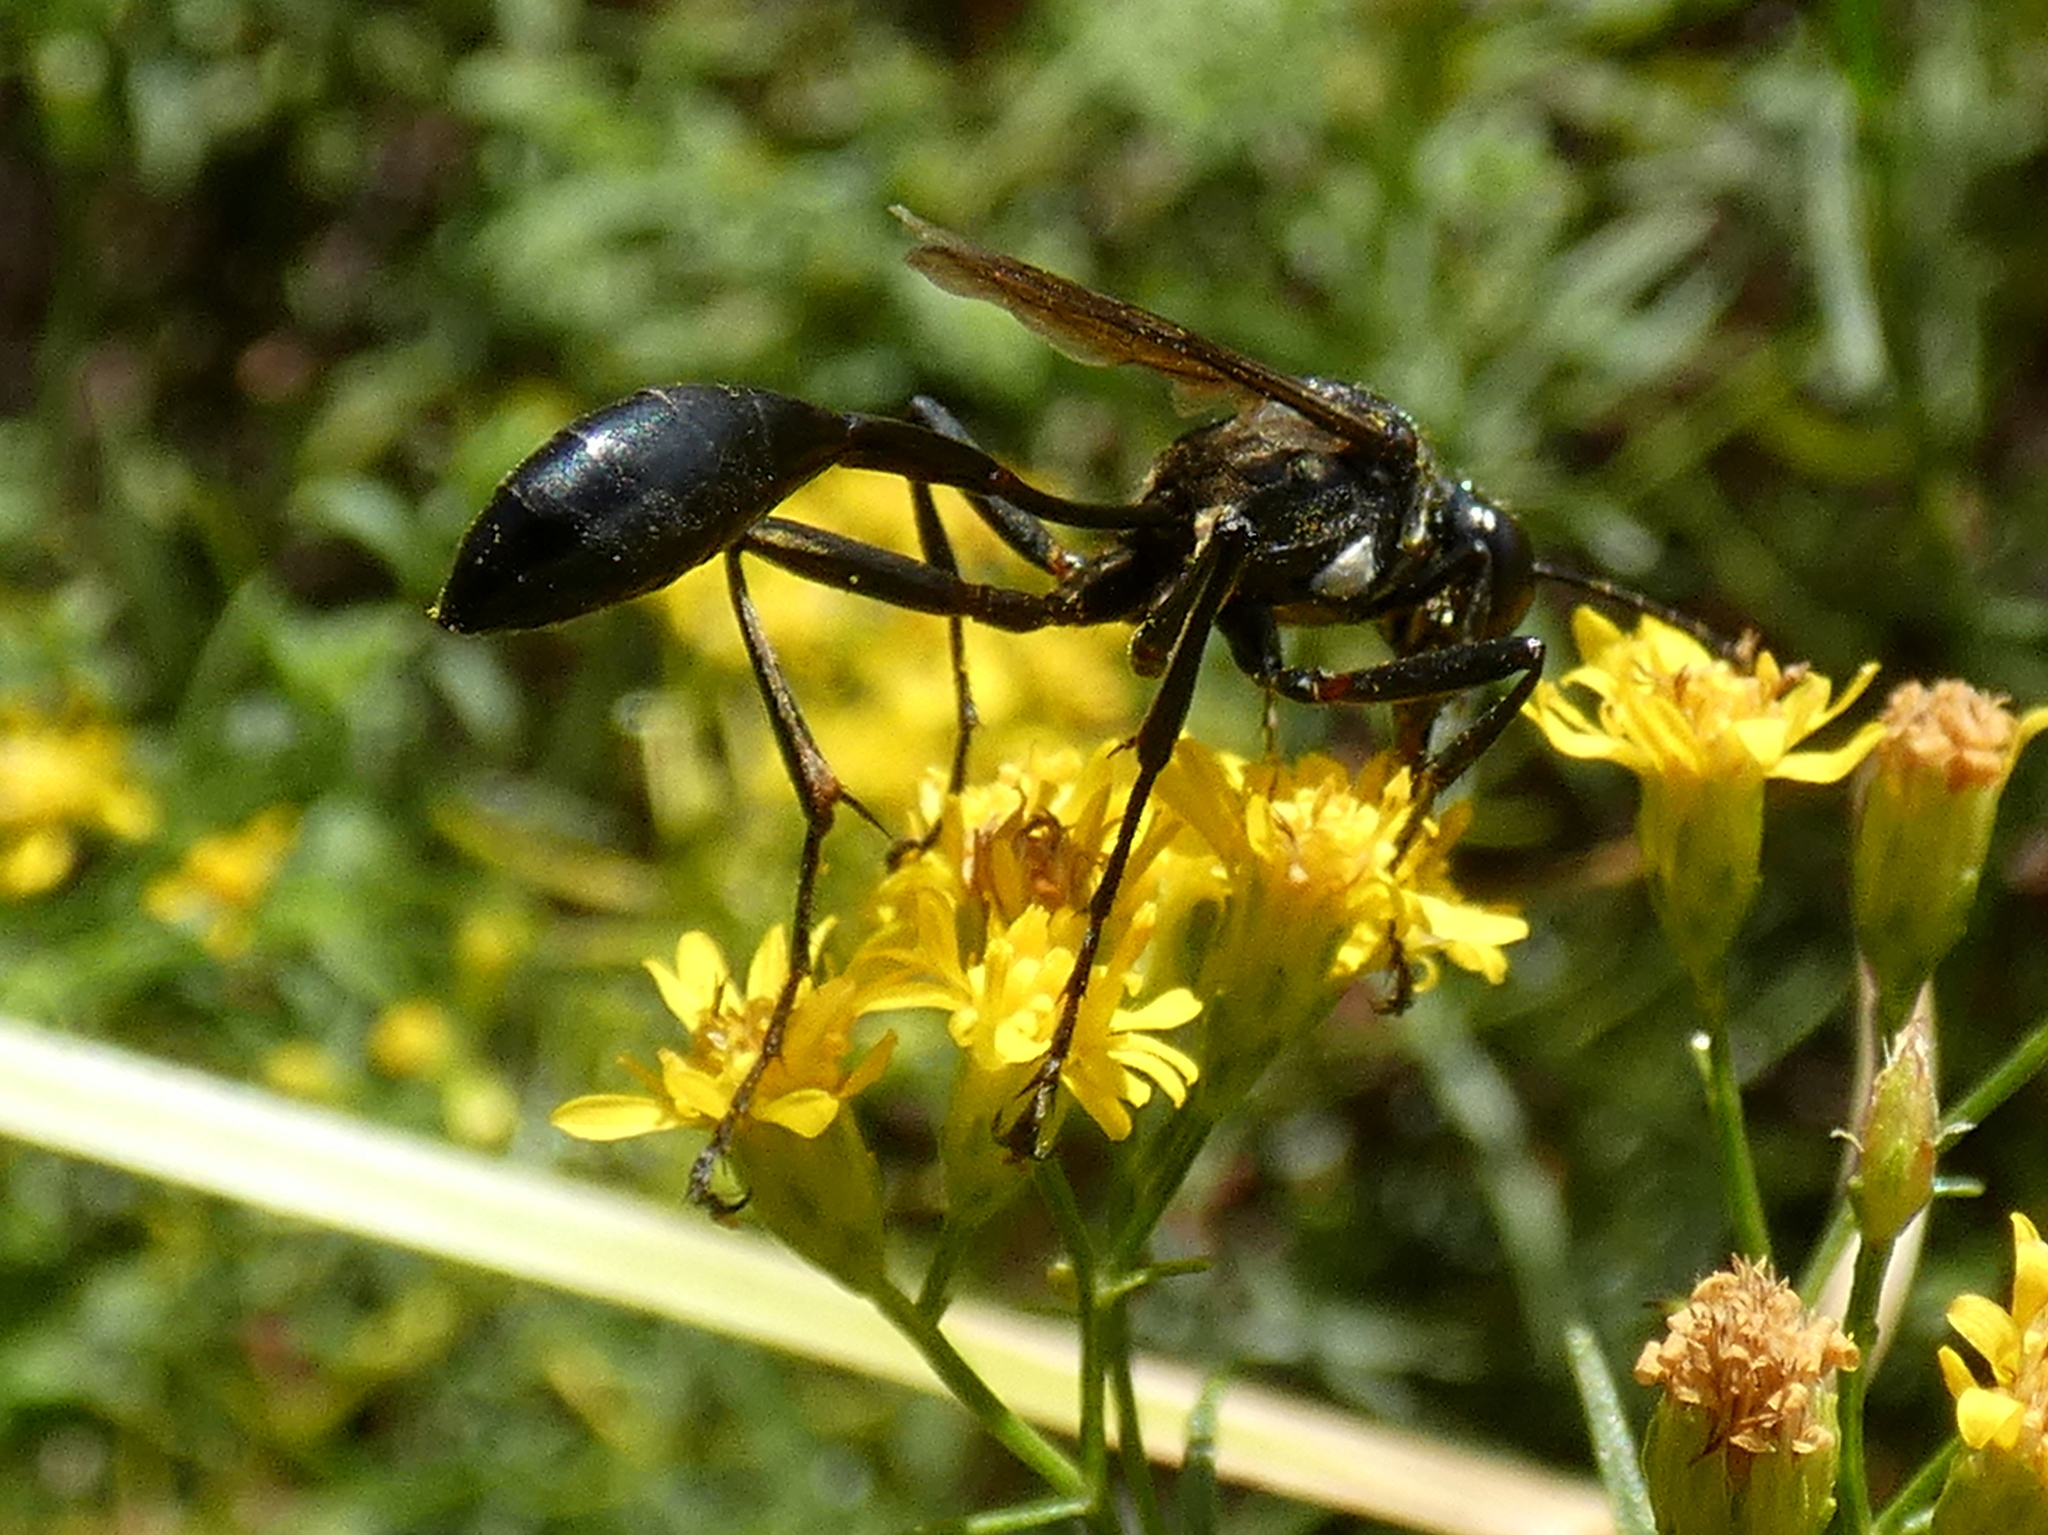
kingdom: Animalia
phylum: Arthropoda
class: Insecta
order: Hymenoptera
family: Crabronidae
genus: Trypoxylon
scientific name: Trypoxylon politum
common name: Organ-pipe mud-dauber wasp
